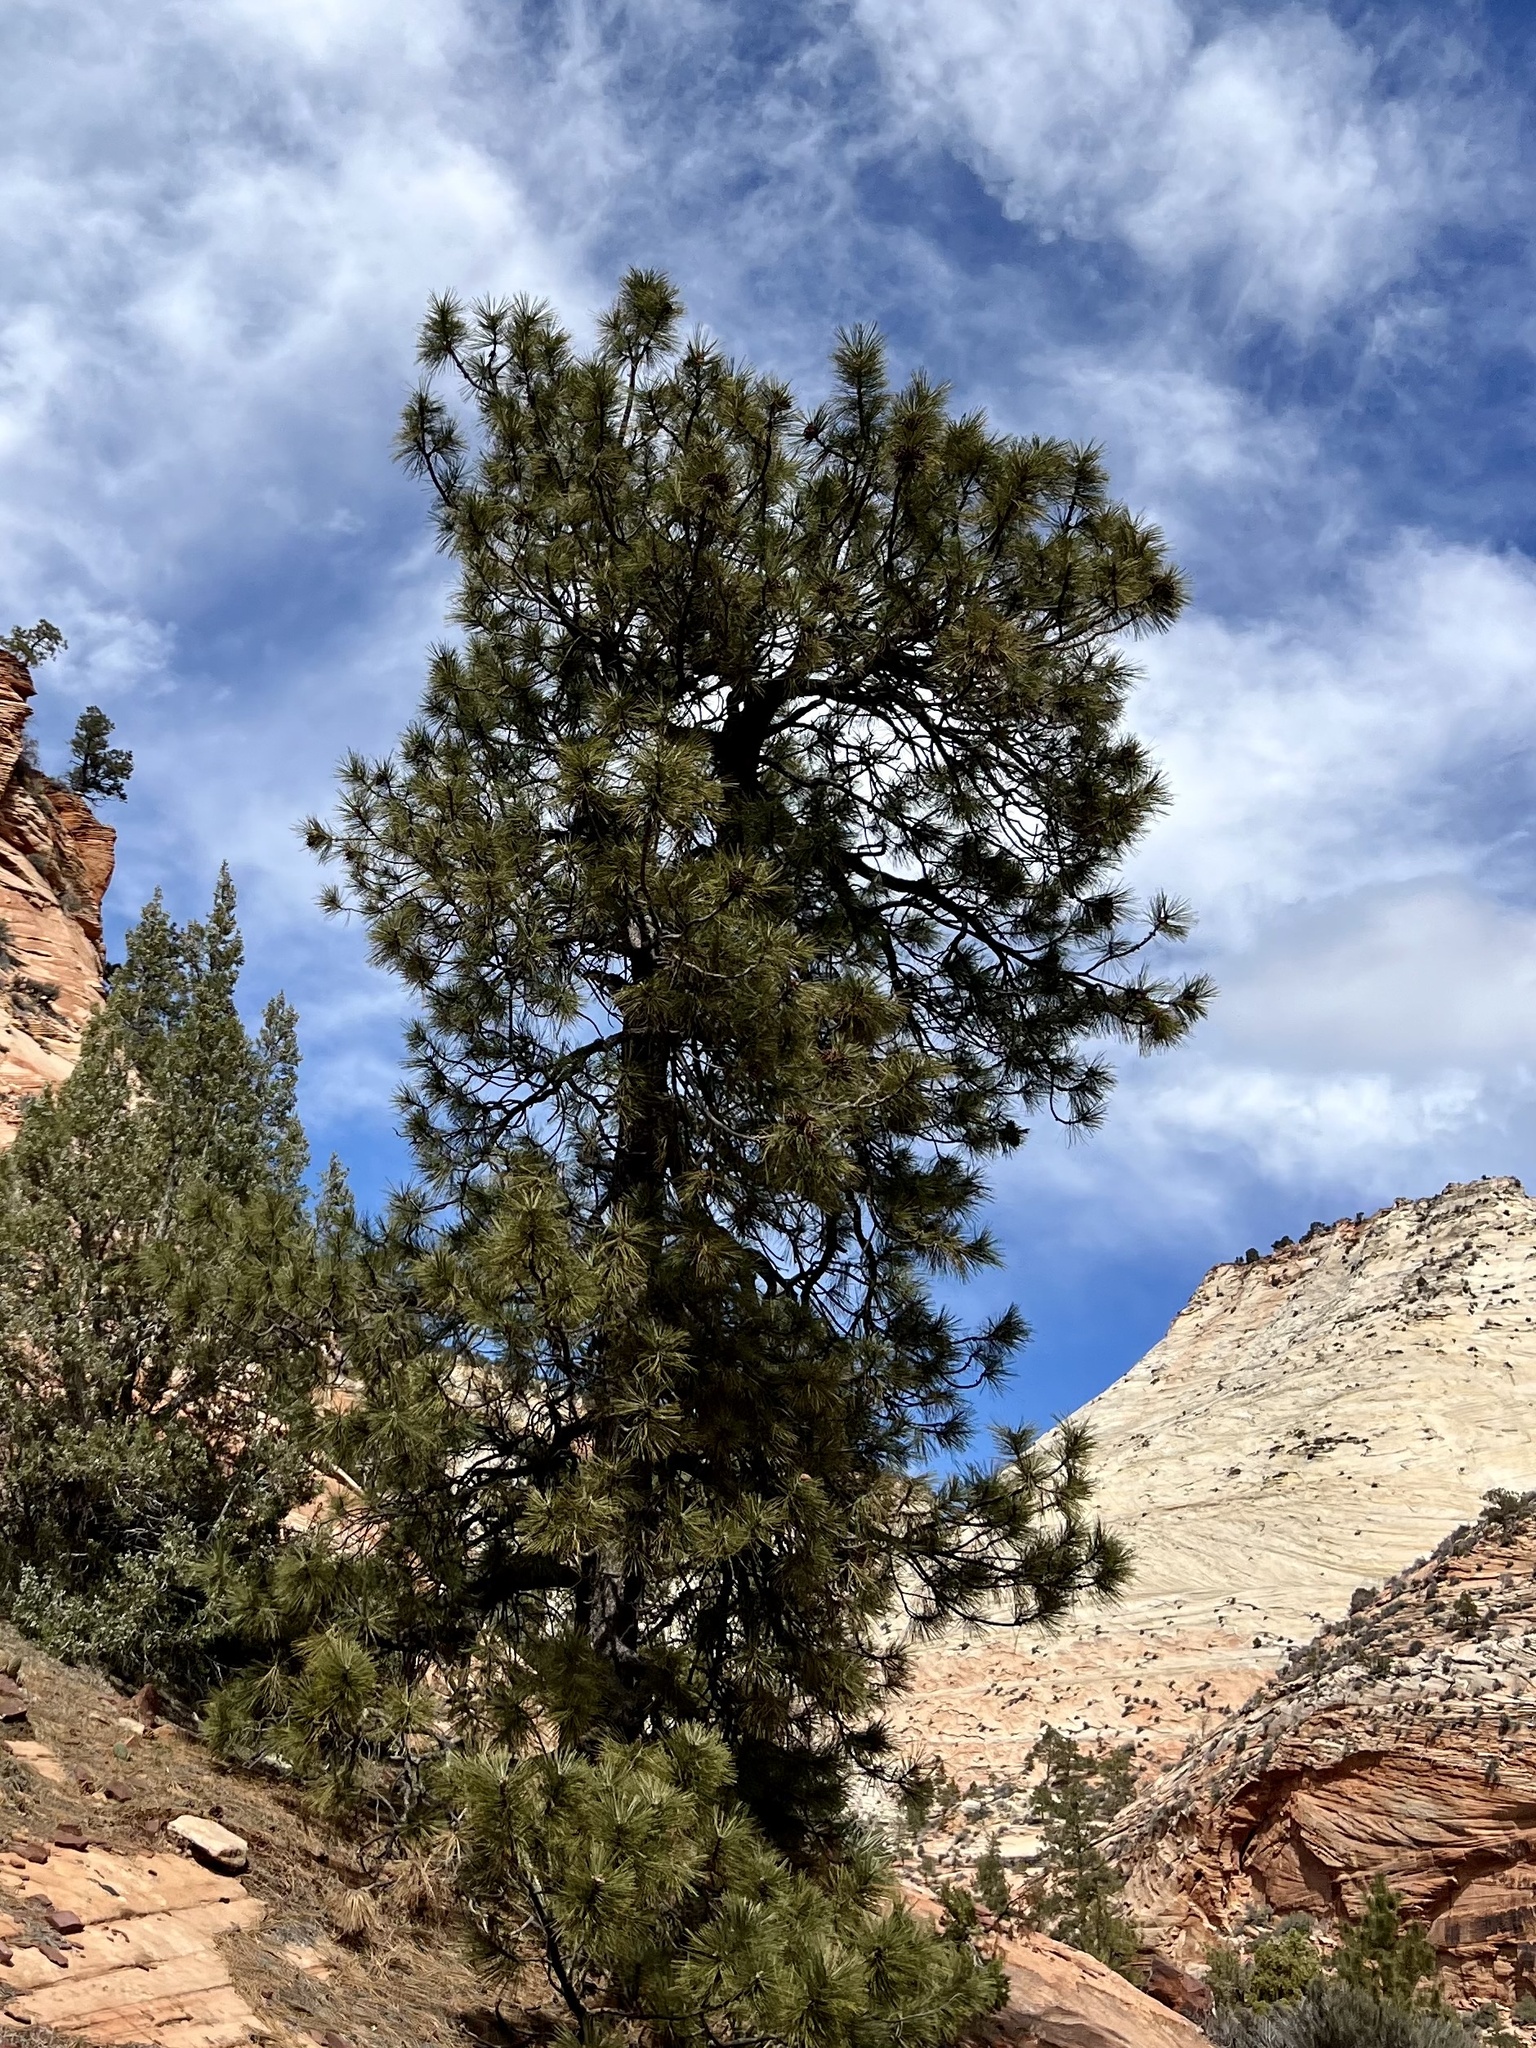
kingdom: Plantae
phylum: Tracheophyta
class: Pinopsida
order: Pinales
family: Pinaceae
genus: Pinus
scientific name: Pinus ponderosa
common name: Western yellow-pine
